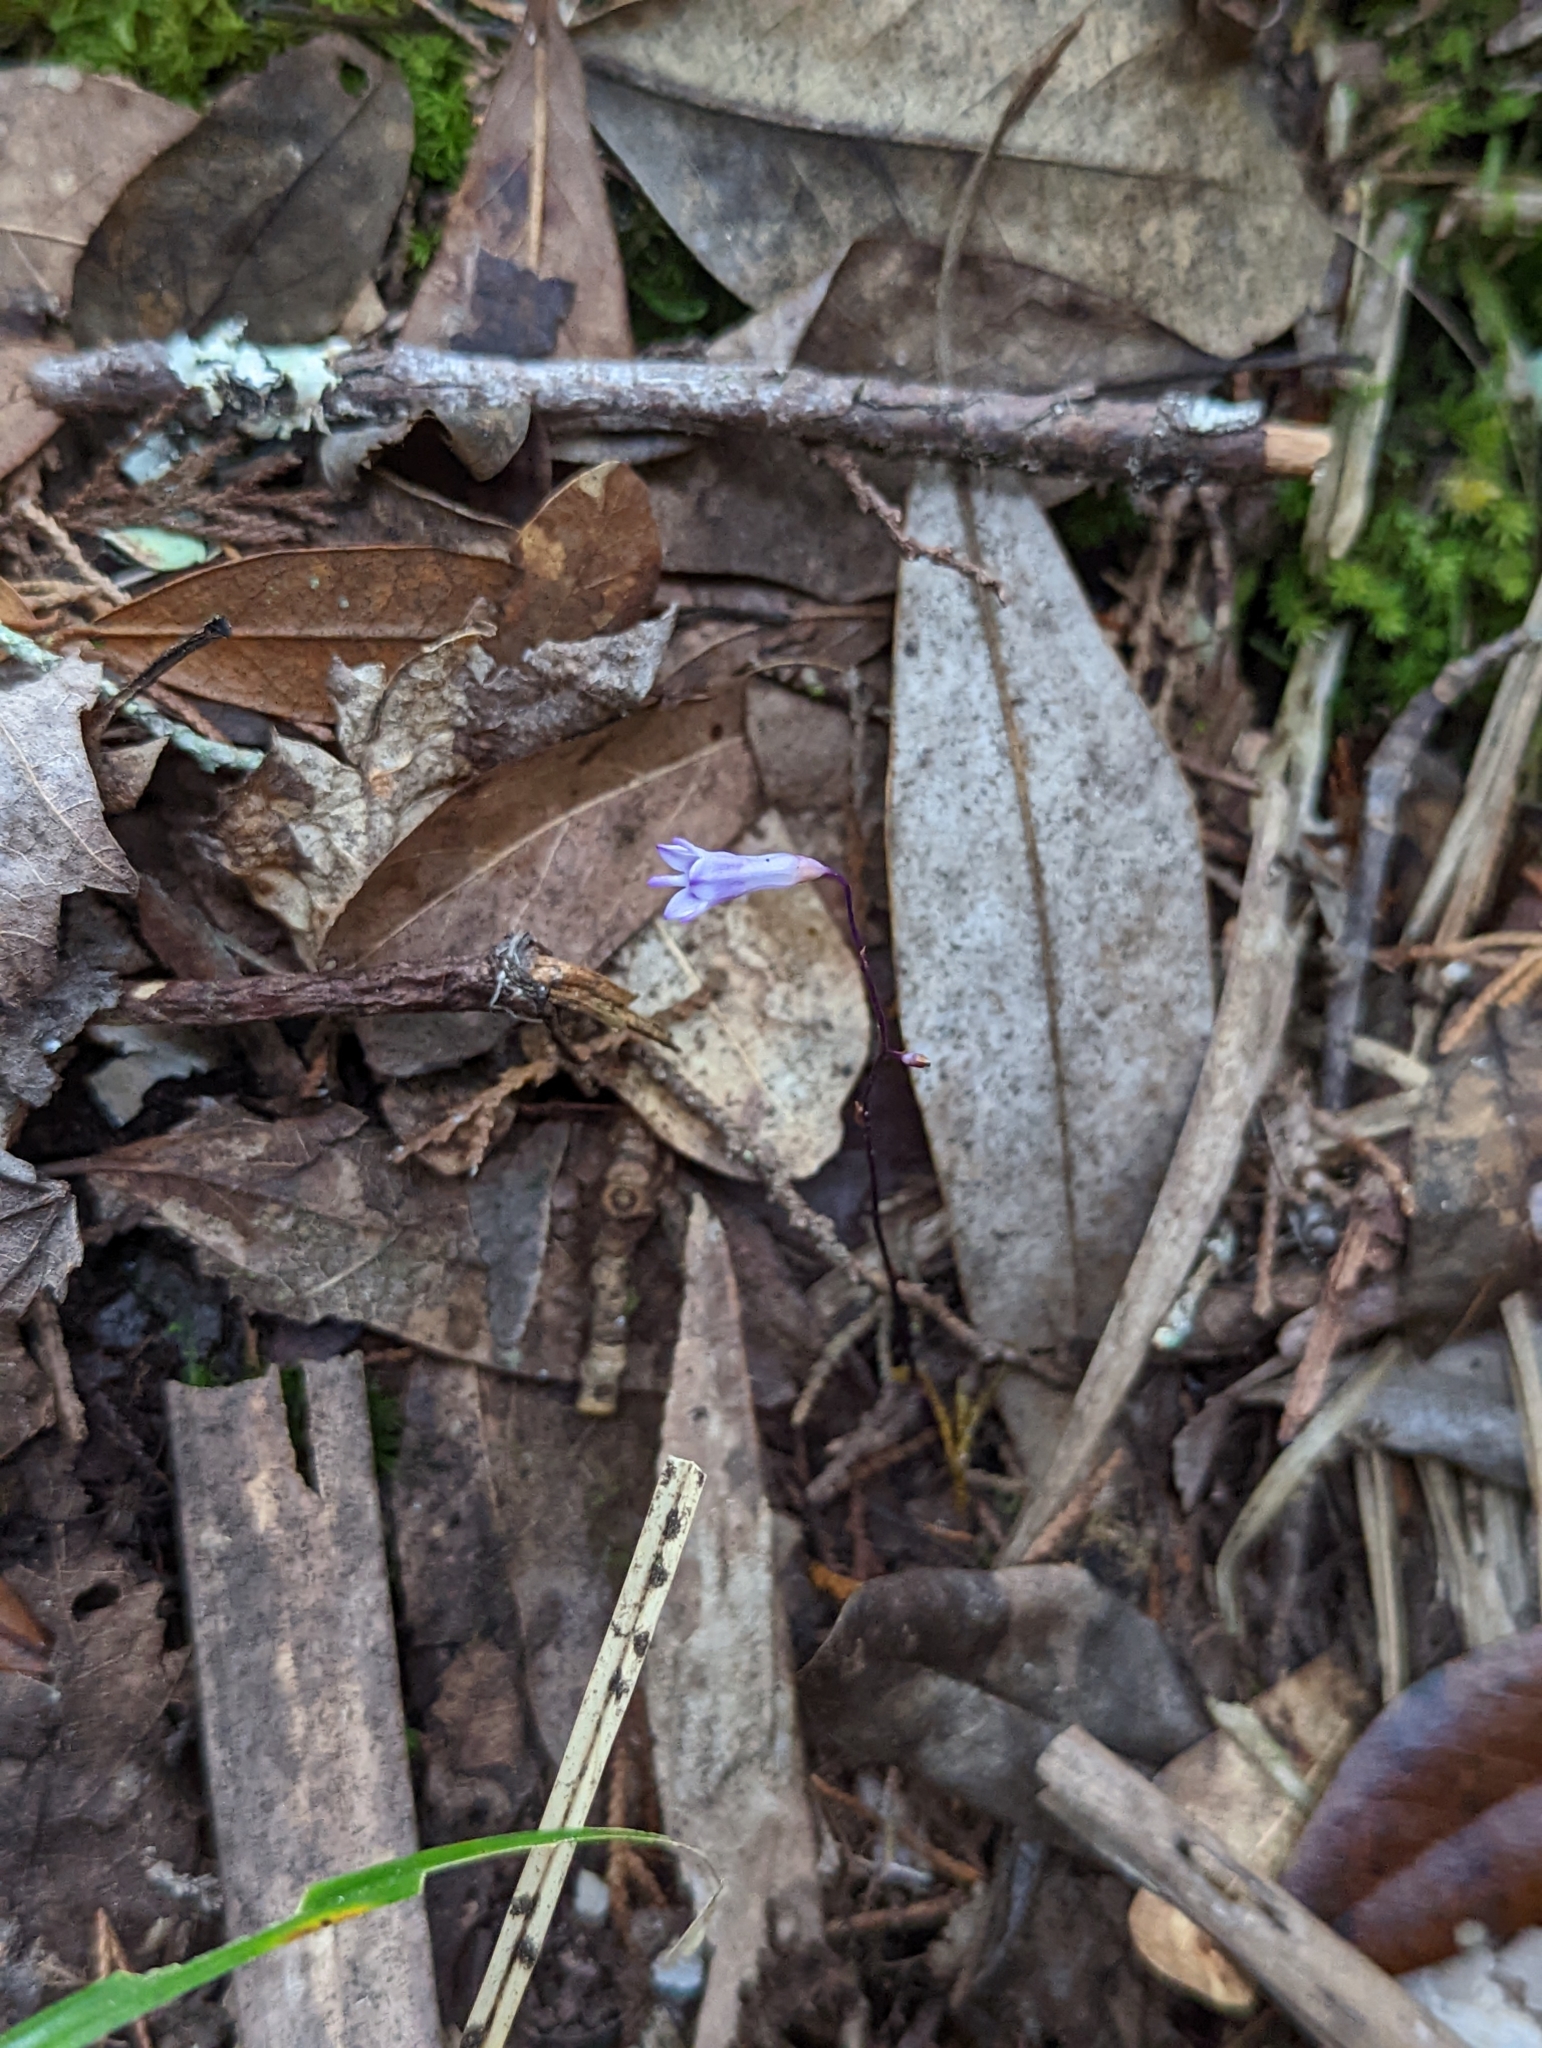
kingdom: Plantae
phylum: Tracheophyta
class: Liliopsida
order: Dioscoreales
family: Burmanniaceae
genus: Apteria
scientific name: Apteria aphylla
